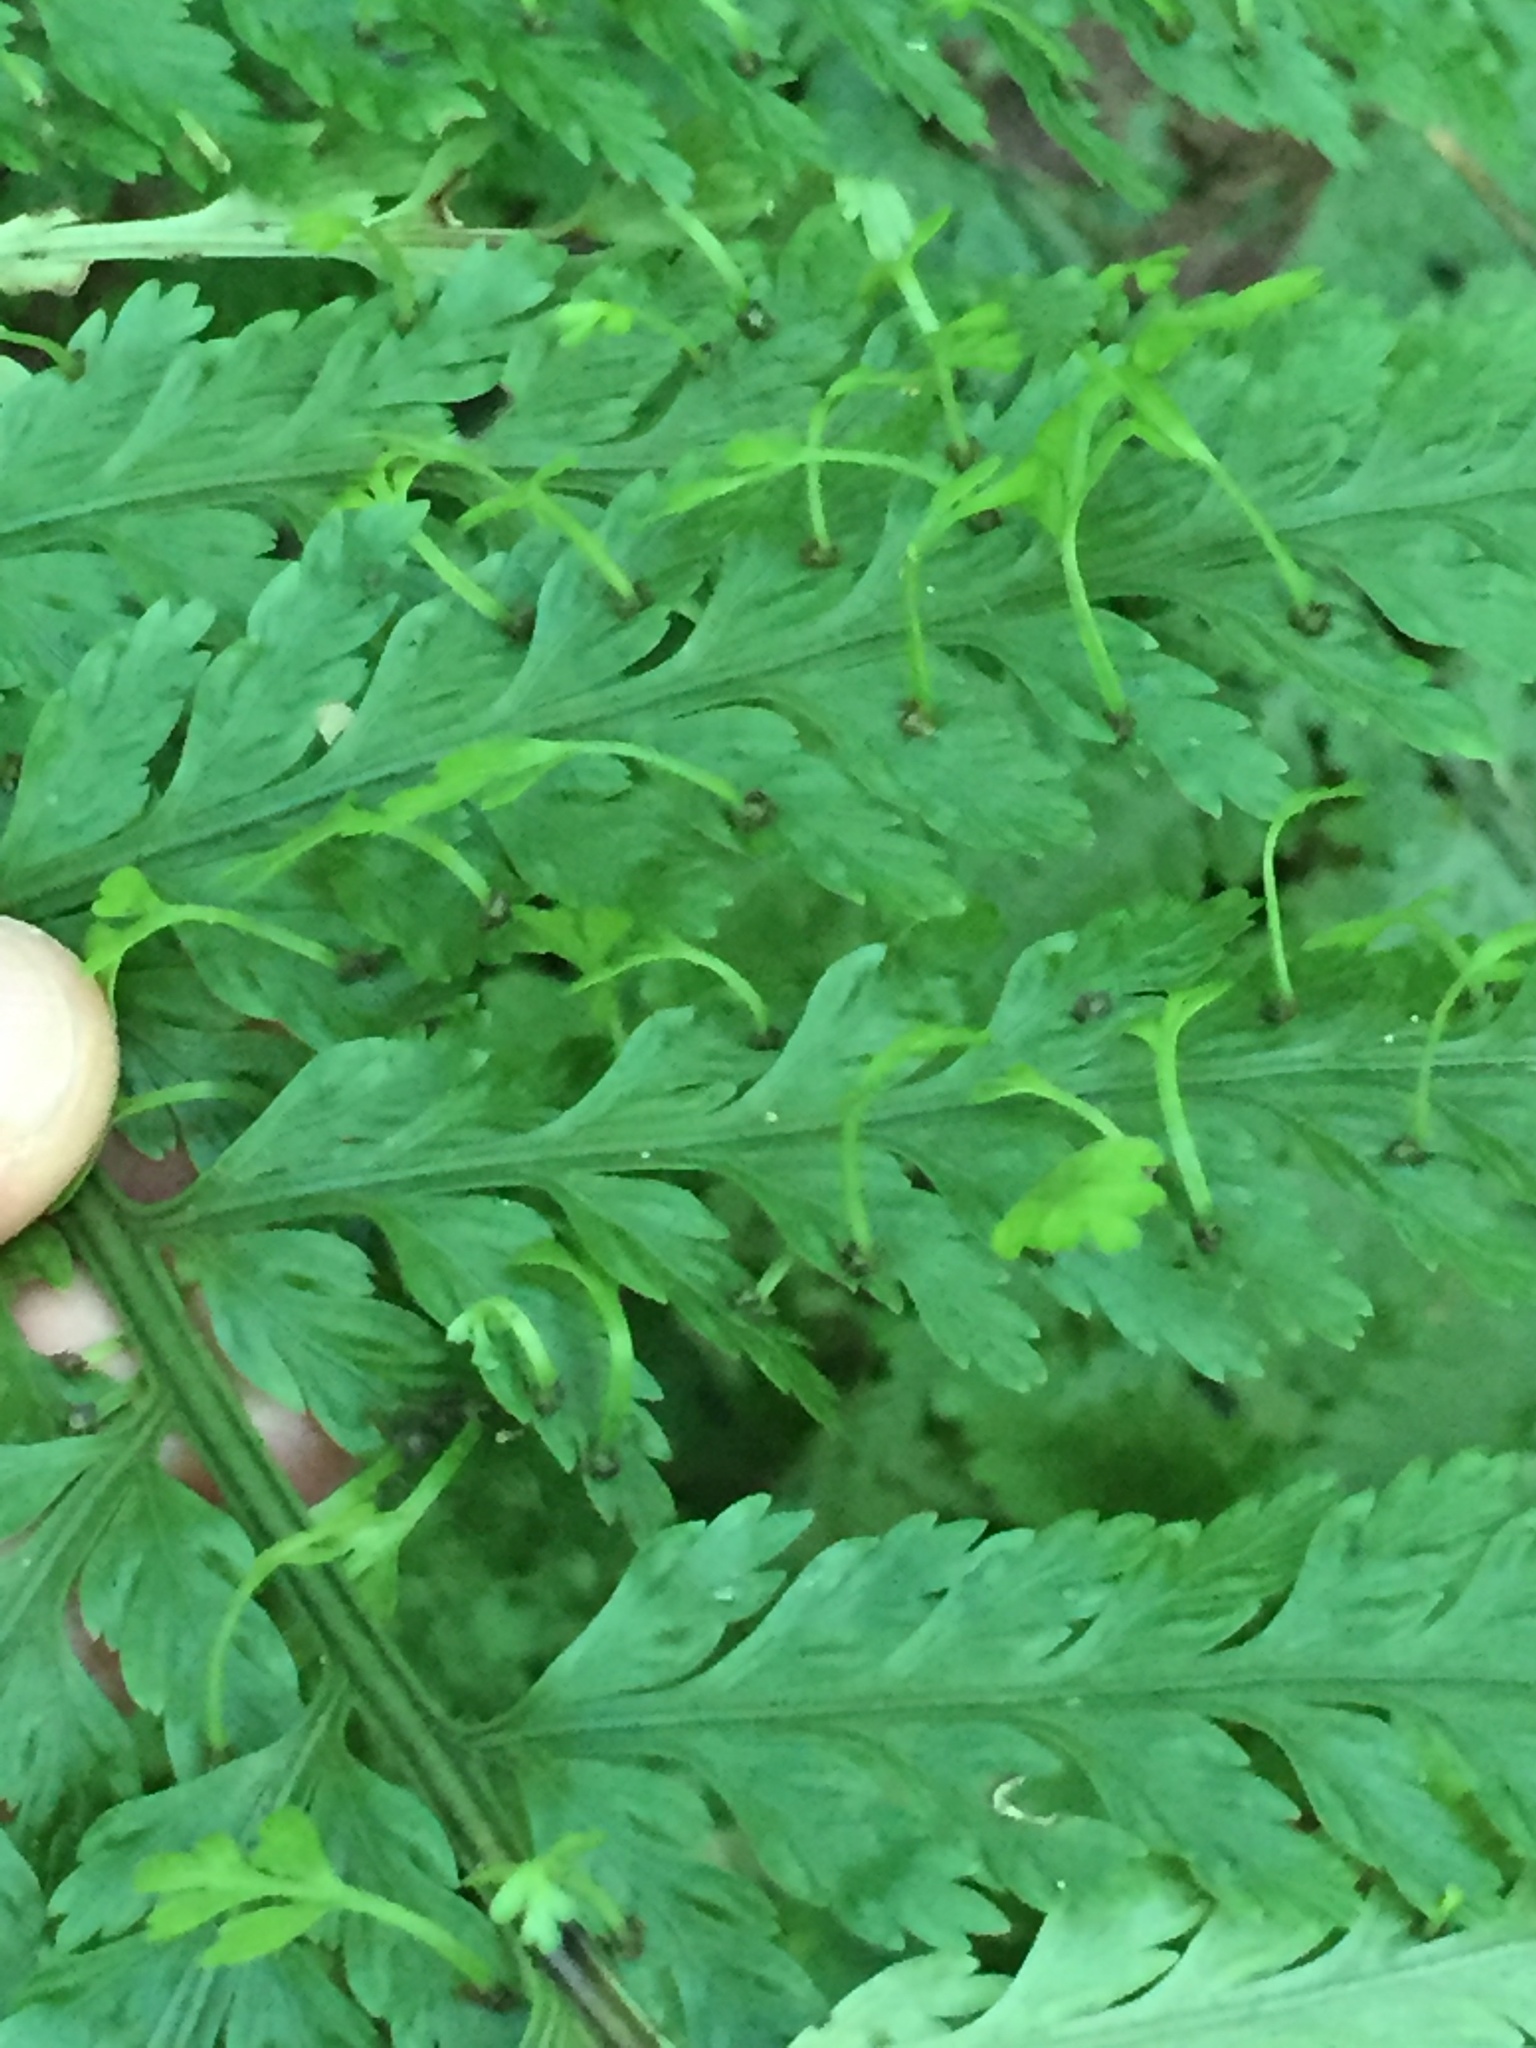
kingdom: Plantae
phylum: Tracheophyta
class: Polypodiopsida
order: Polypodiales
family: Aspleniaceae
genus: Asplenium
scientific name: Asplenium bulbiferum
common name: Mother fern
